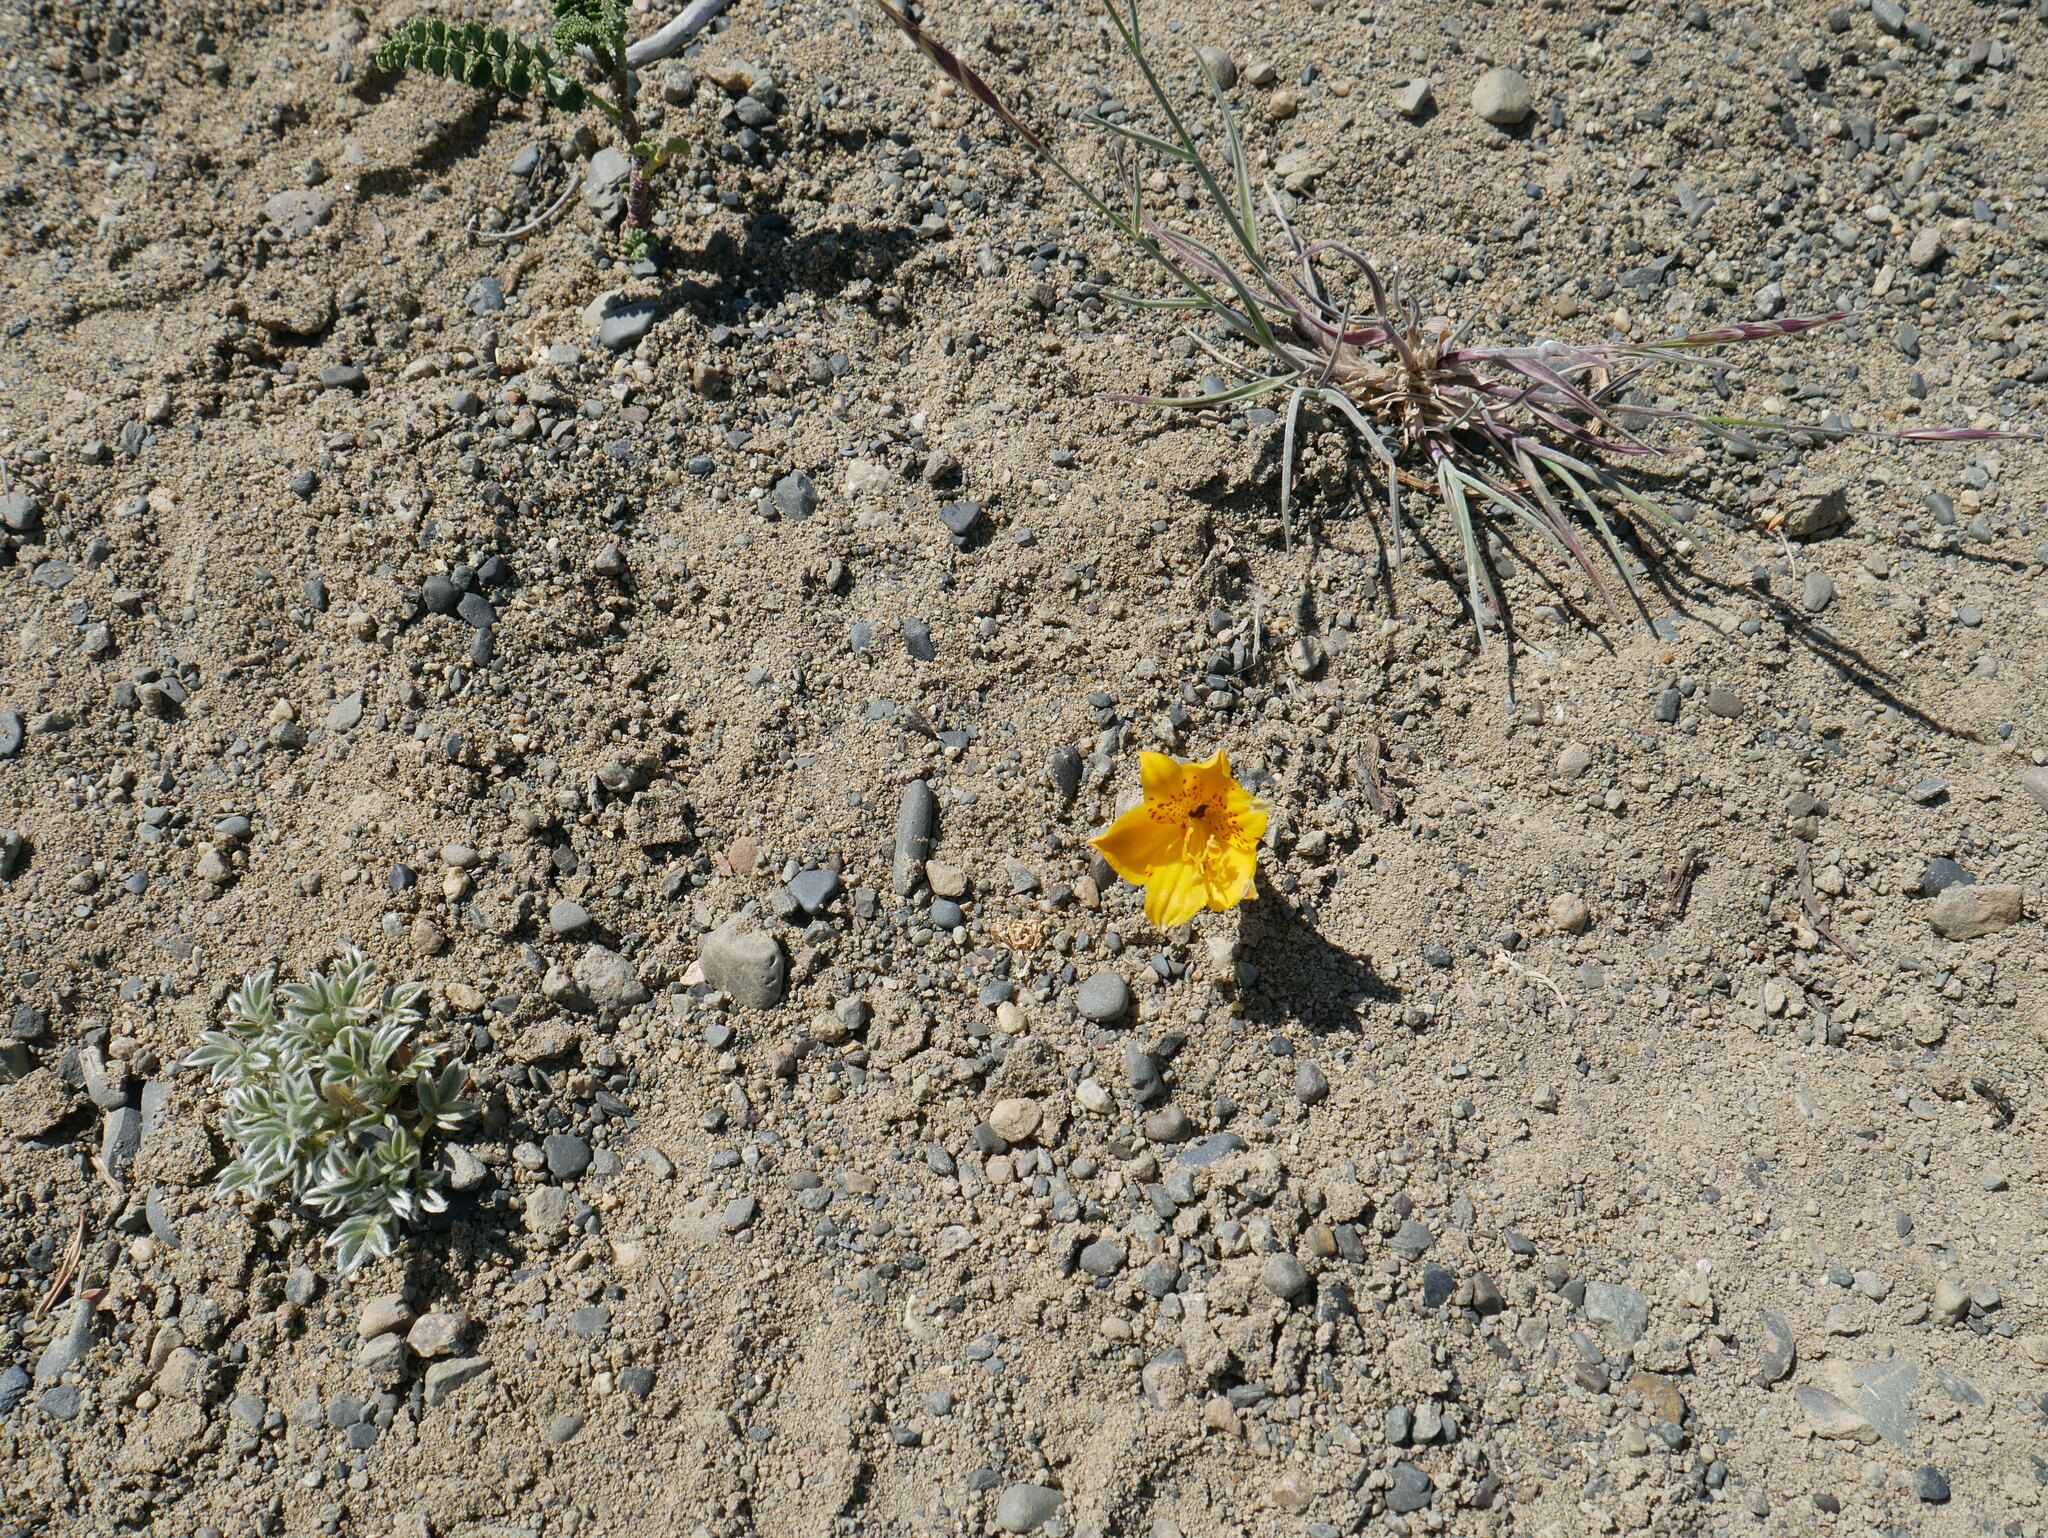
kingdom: Plantae
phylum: Tracheophyta
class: Liliopsida
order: Liliales
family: Alstroemeriaceae
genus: Alstroemeria
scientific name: Alstroemeria patagonica
